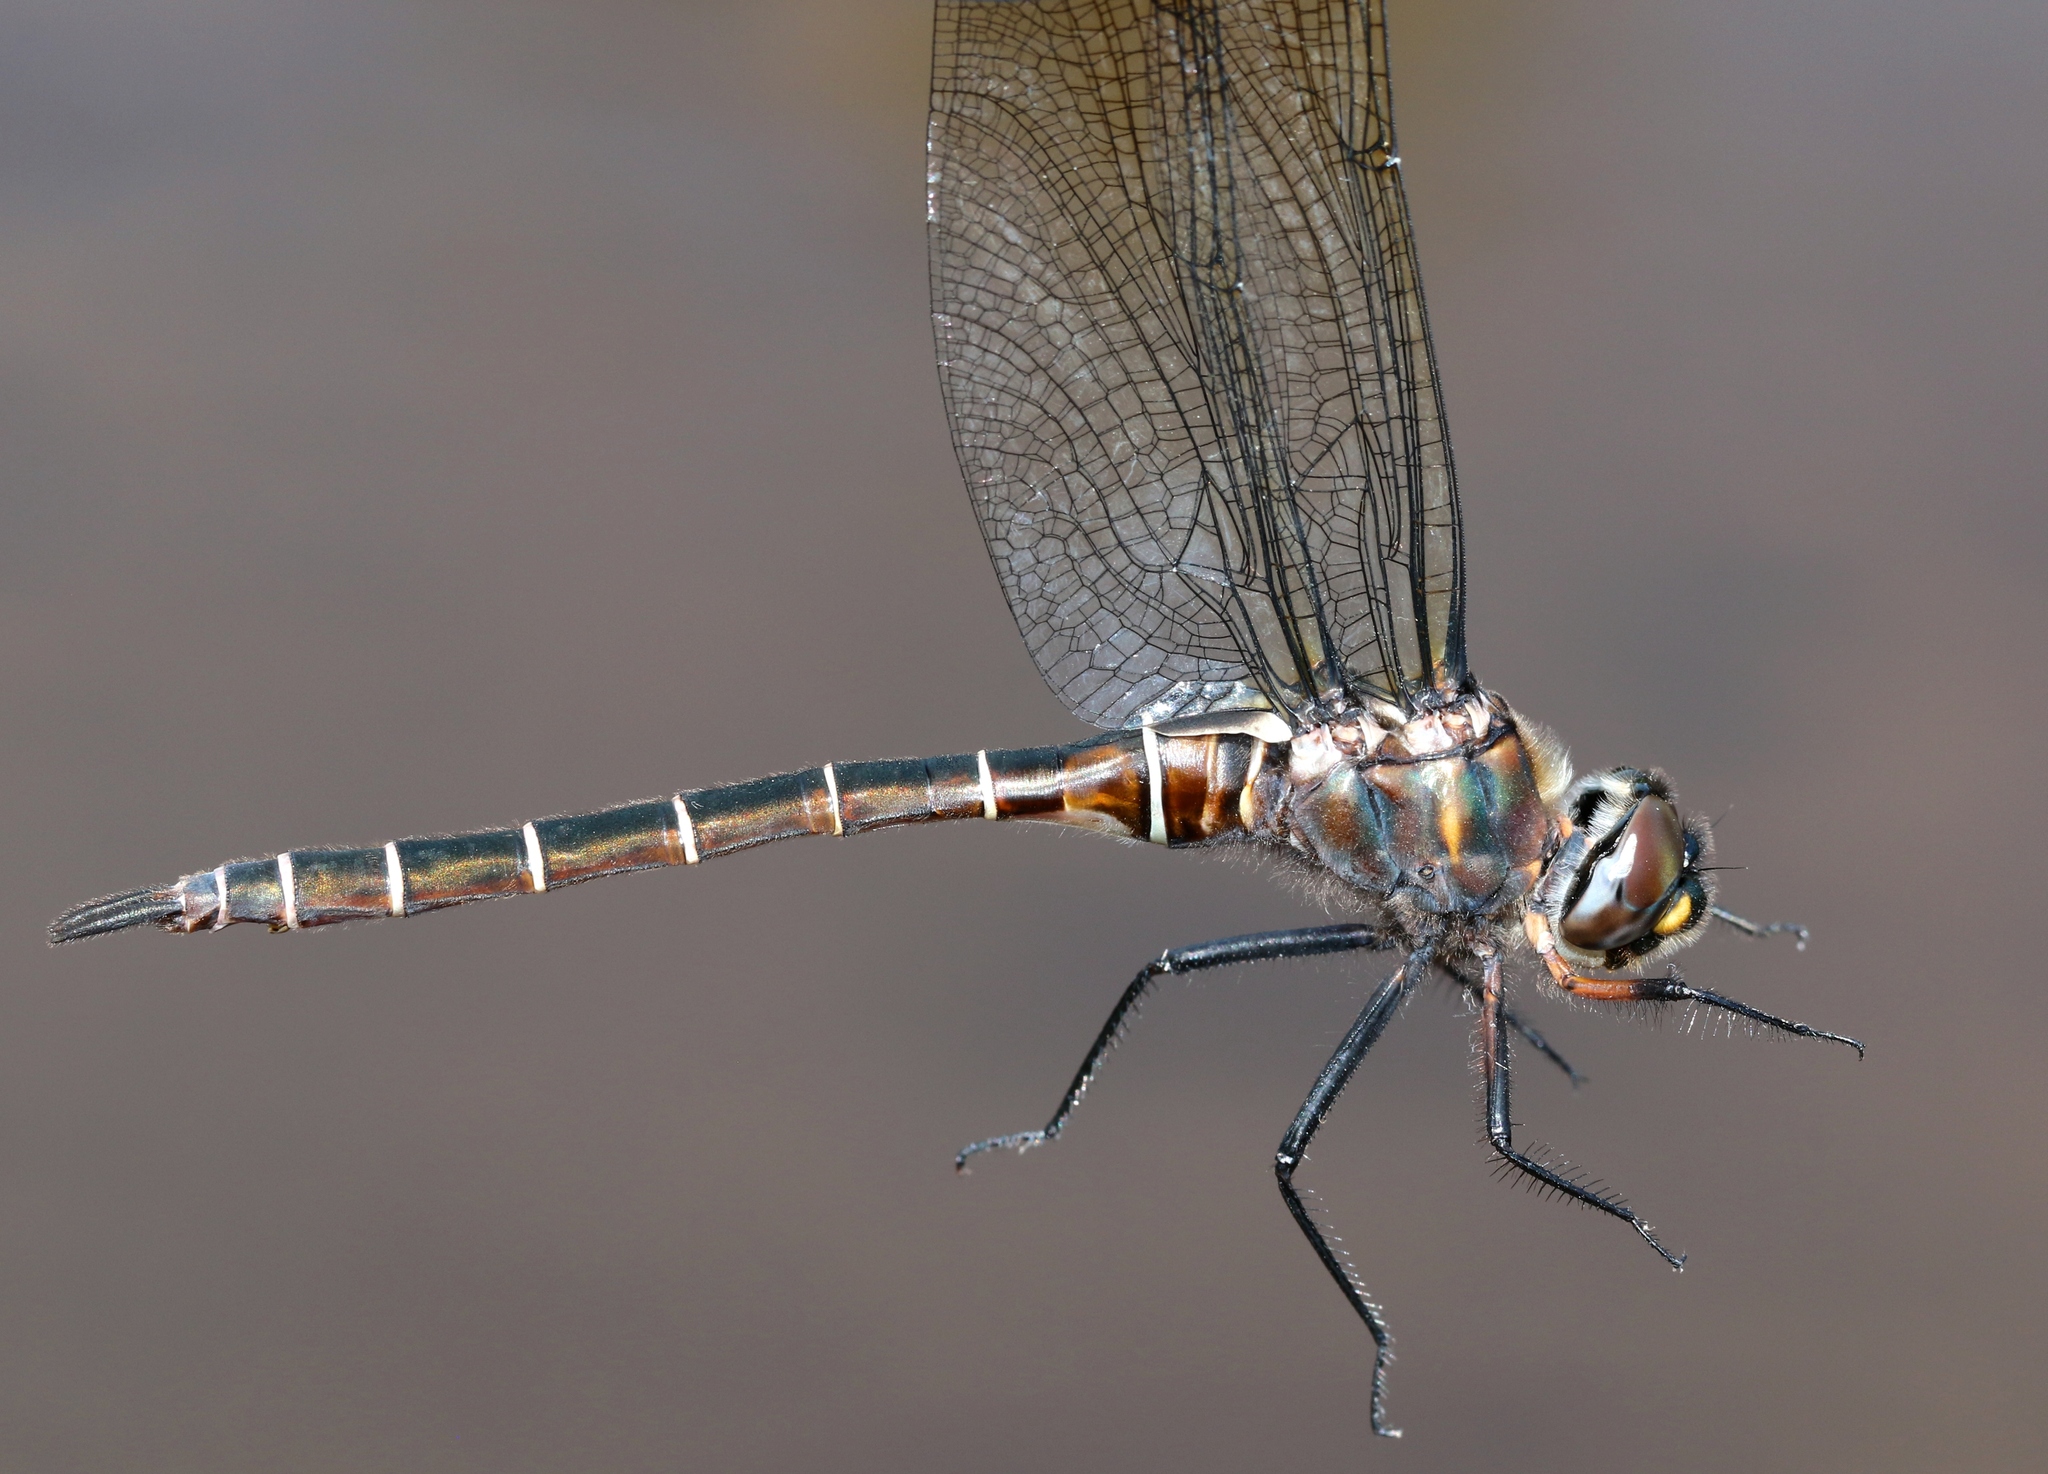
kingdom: Animalia
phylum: Arthropoda
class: Insecta
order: Odonata
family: Corduliidae
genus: Somatochlora
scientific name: Somatochlora cingulata
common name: Lake emerald
